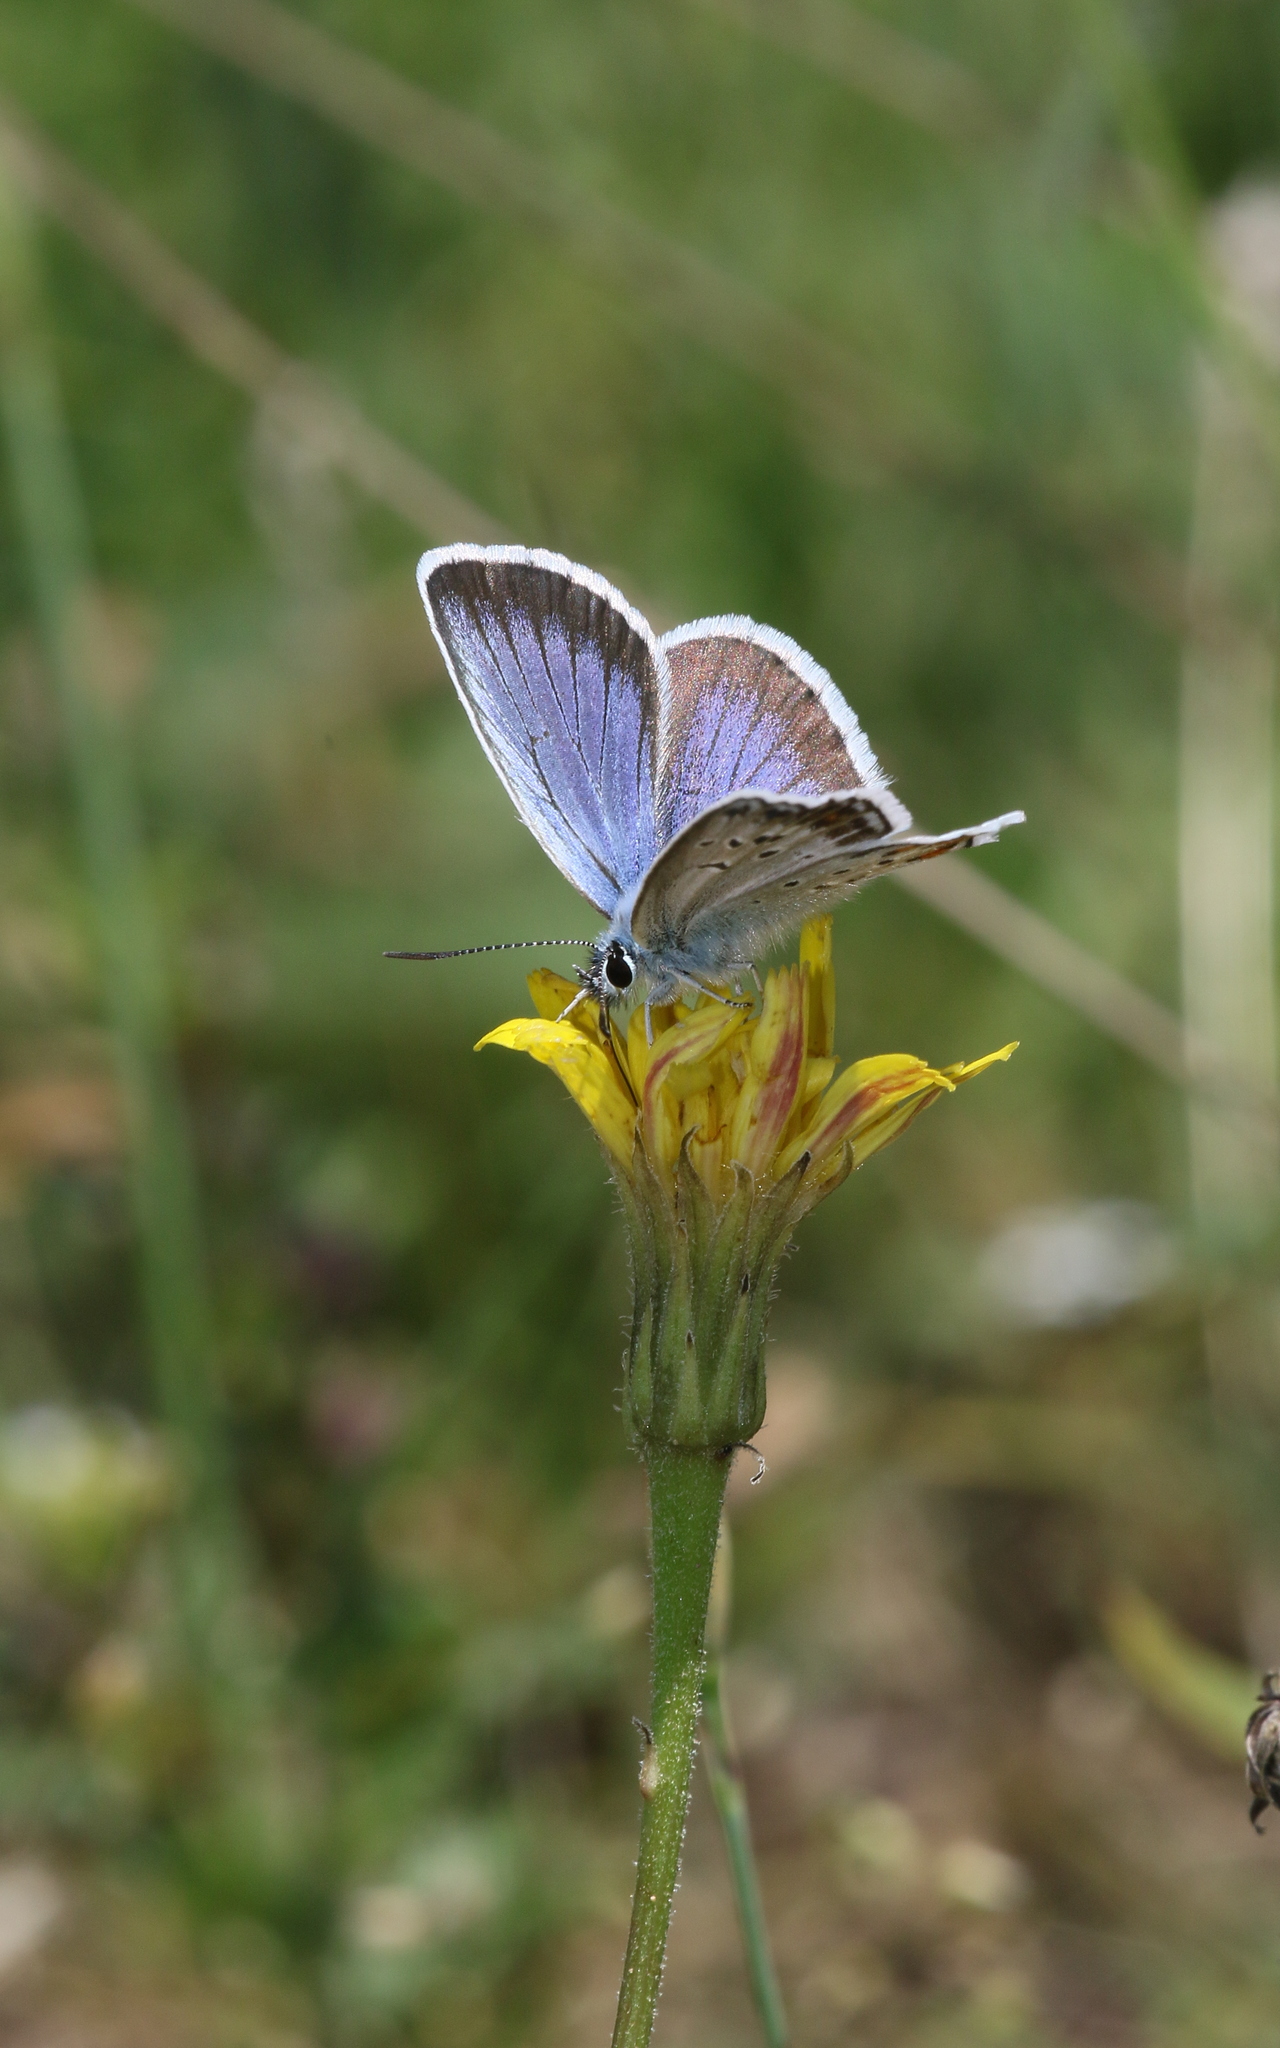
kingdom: Animalia
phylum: Arthropoda
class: Insecta
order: Lepidoptera
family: Lycaenidae
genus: Plebejus
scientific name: Plebejus argus
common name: Silver-studded blue
